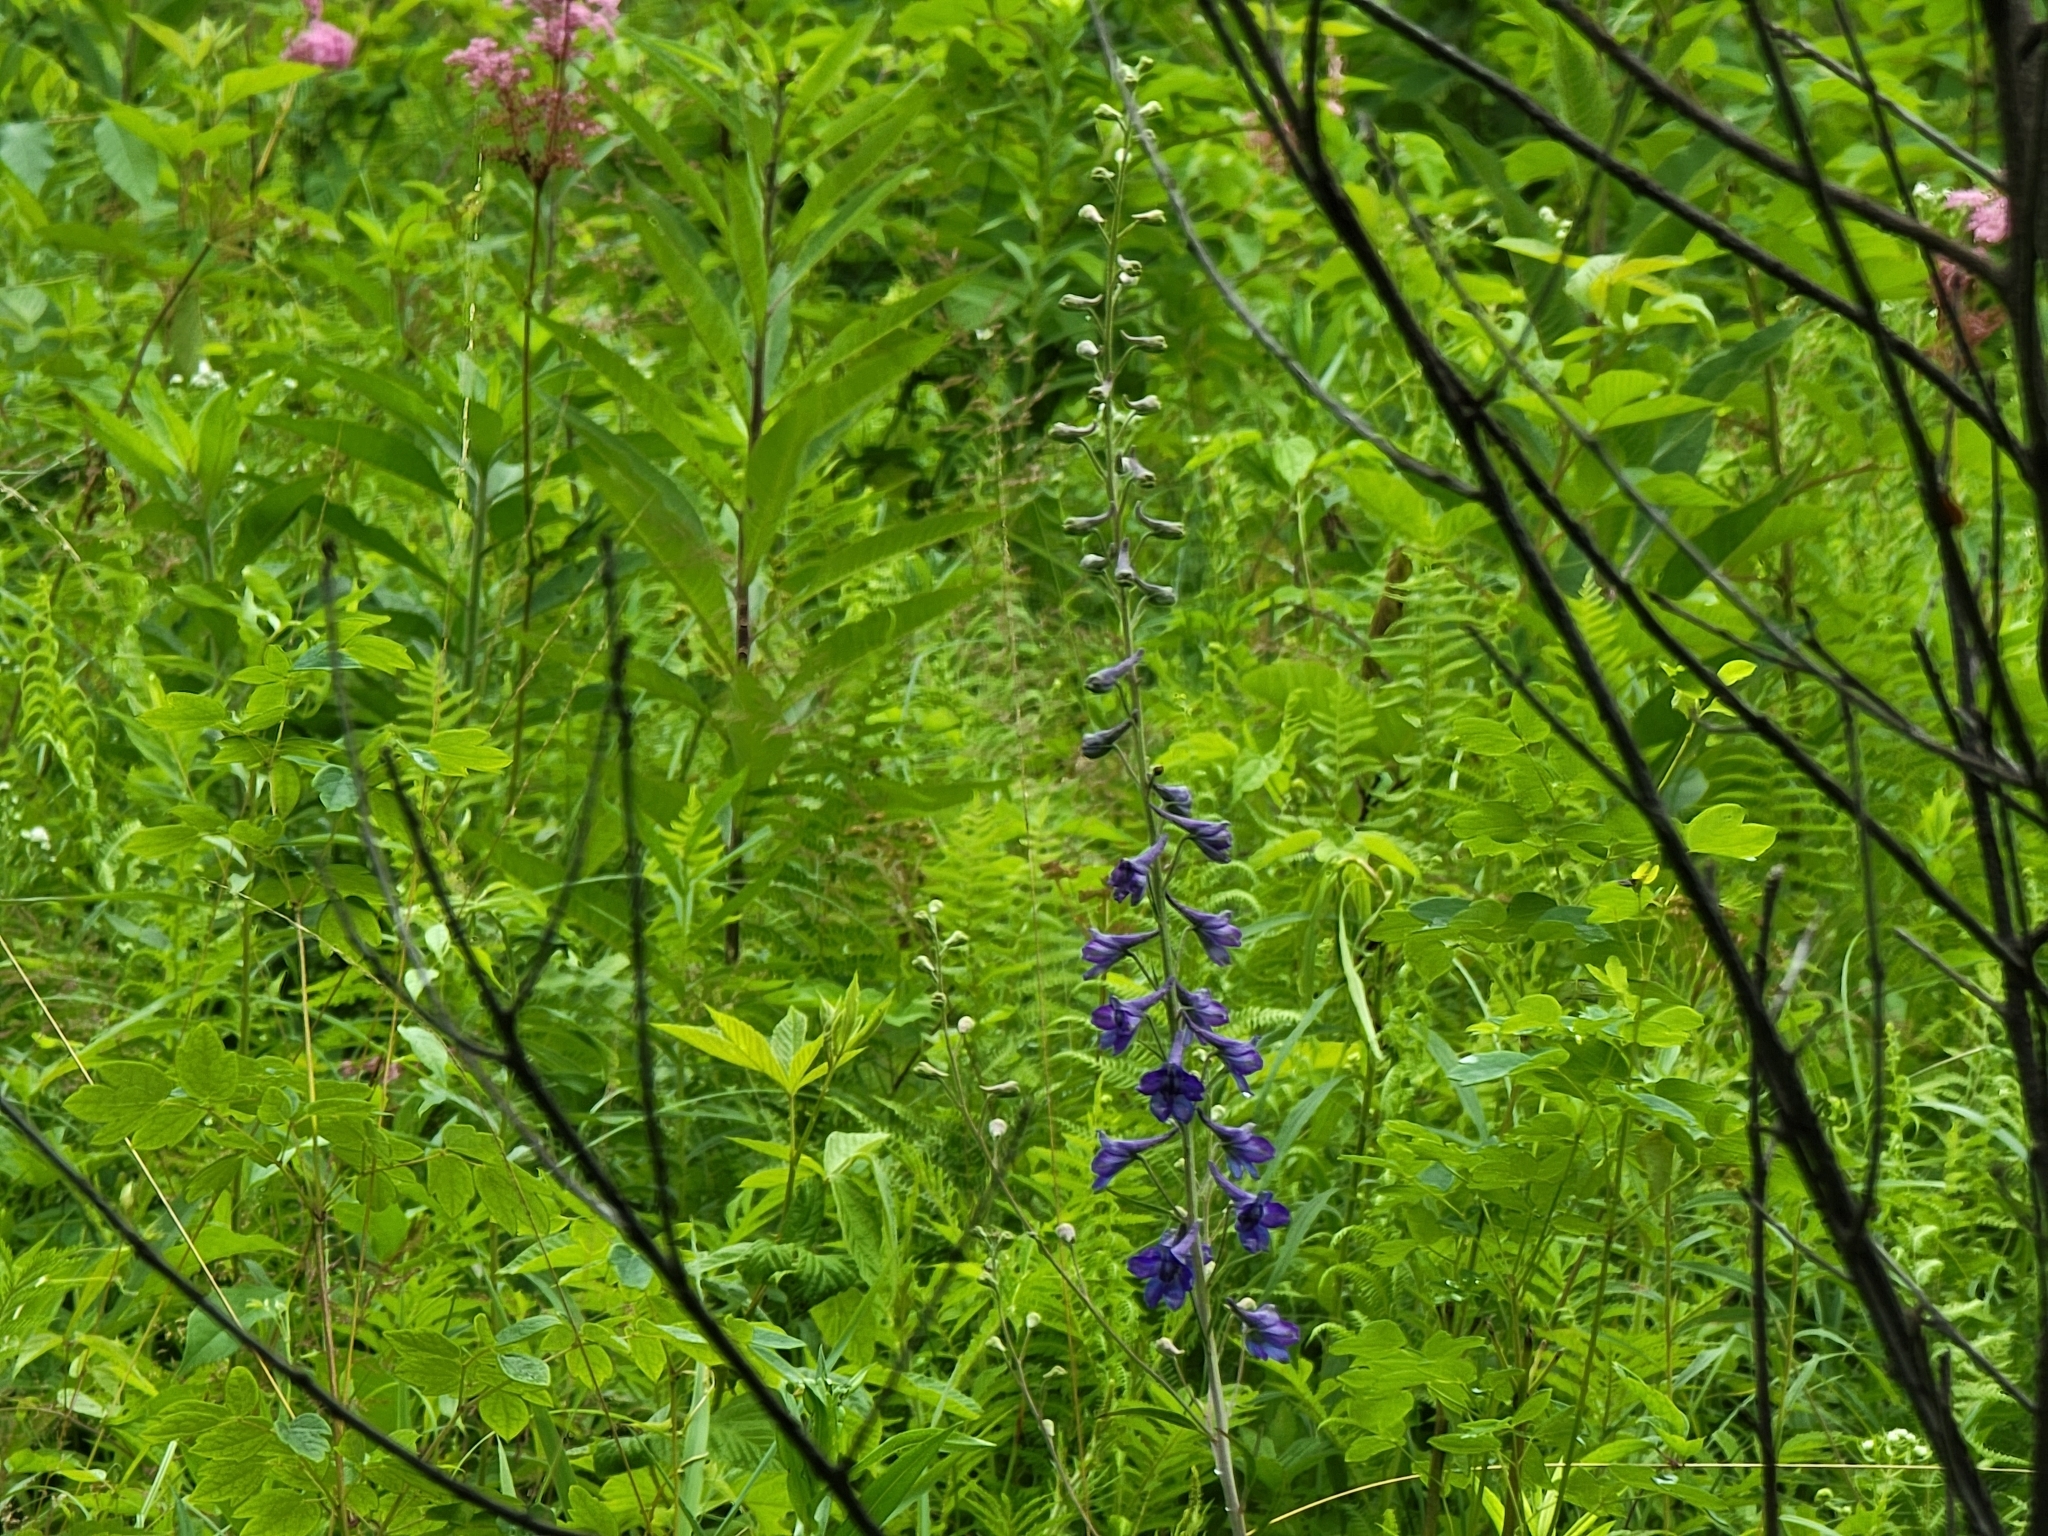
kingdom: Plantae
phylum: Tracheophyta
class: Magnoliopsida
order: Ranunculales
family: Ranunculaceae
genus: Delphinium
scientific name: Delphinium exaltatum
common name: Tall larkspur
